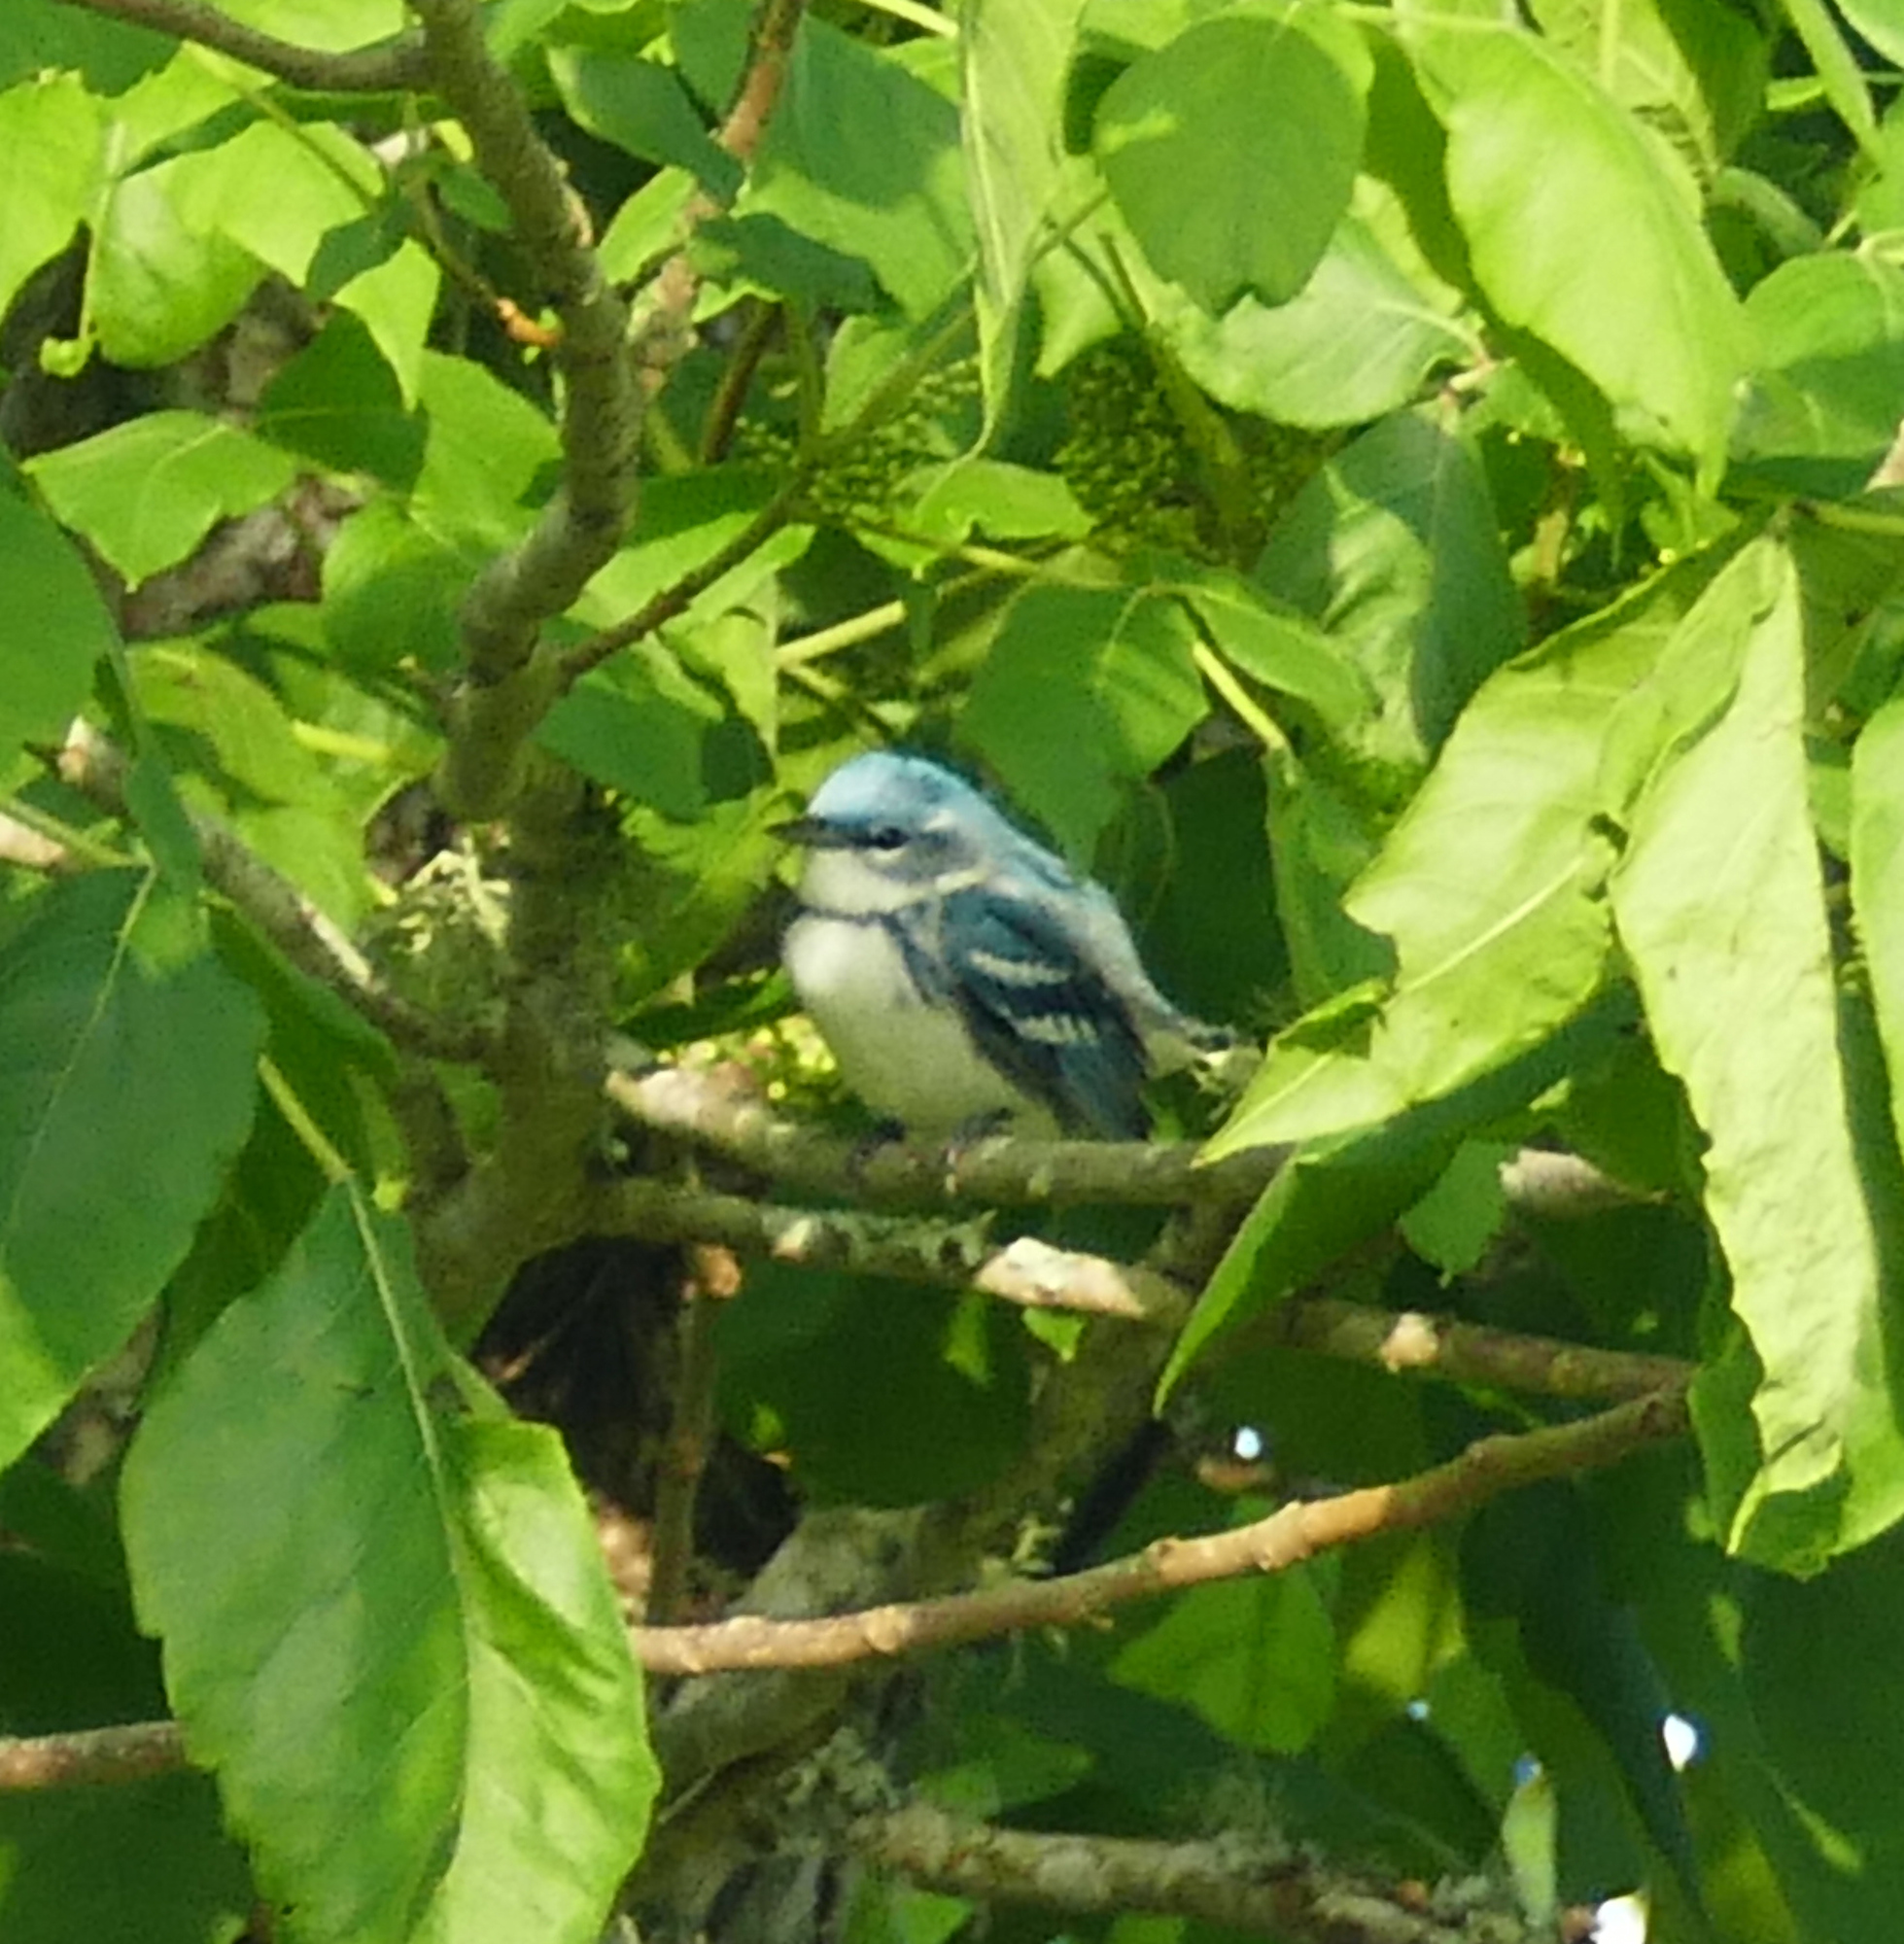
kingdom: Animalia
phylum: Chordata
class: Aves
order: Passeriformes
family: Parulidae
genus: Setophaga
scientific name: Setophaga cerulea
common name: Cerulean warbler
